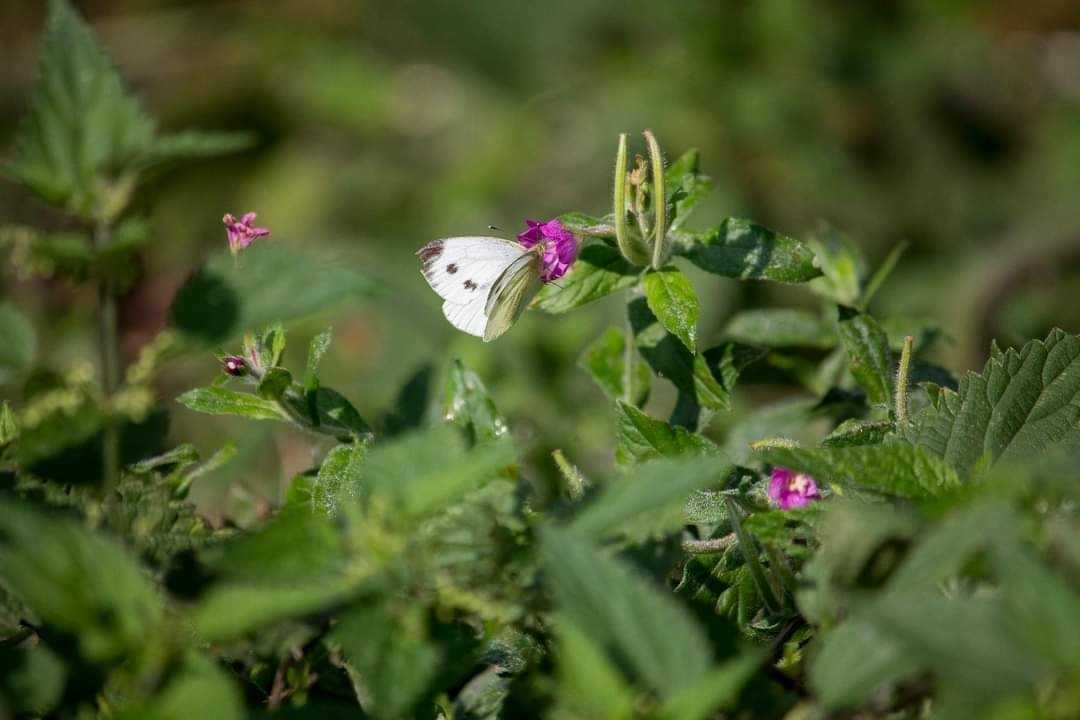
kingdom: Animalia
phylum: Arthropoda
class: Insecta
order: Lepidoptera
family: Pieridae
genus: Pieris
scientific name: Pieris napi
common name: Green-veined white
